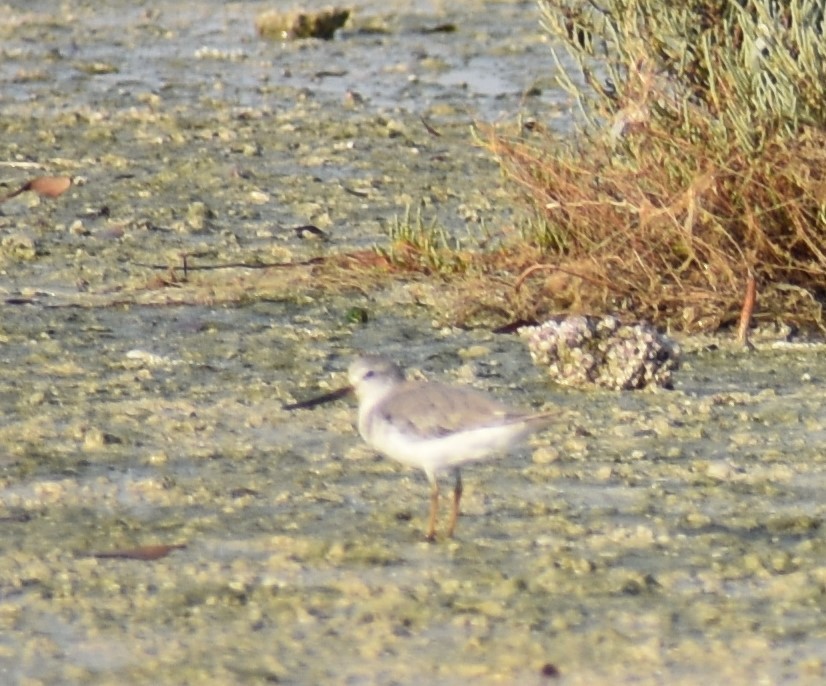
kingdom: Animalia
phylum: Chordata
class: Aves
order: Charadriiformes
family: Scolopacidae
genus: Xenus
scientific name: Xenus cinereus
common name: Terek sandpiper
